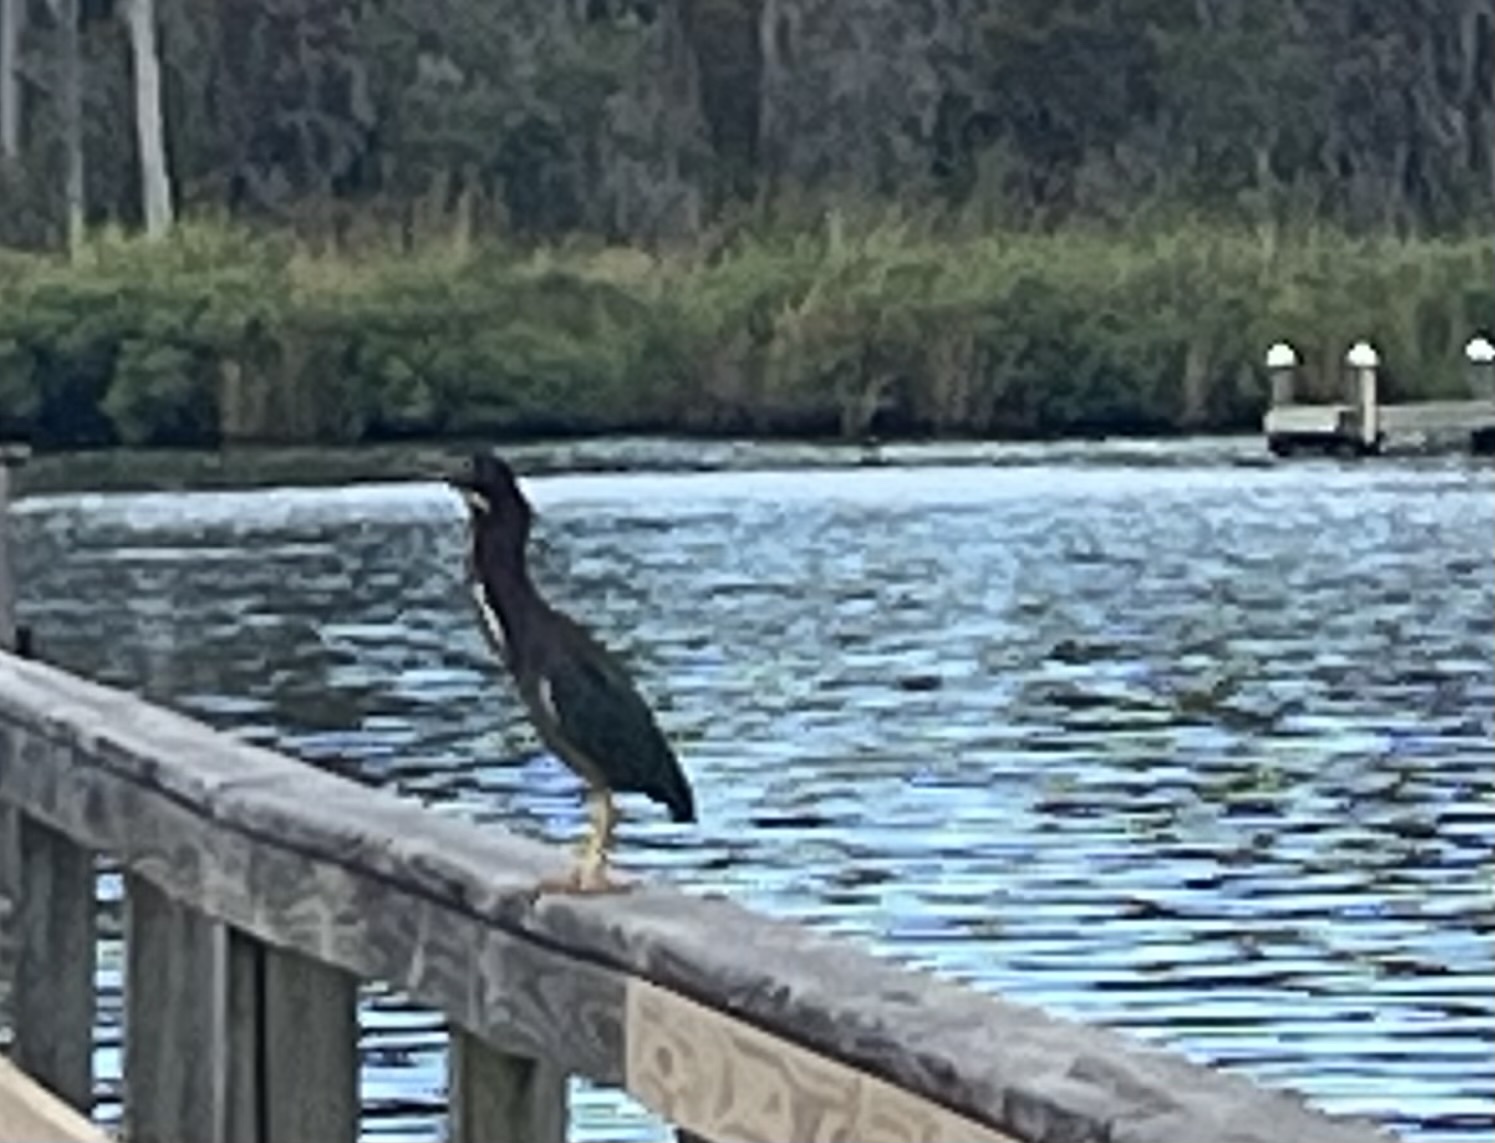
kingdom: Animalia
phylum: Chordata
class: Aves
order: Pelecaniformes
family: Ardeidae
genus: Butorides
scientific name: Butorides virescens
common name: Green heron
